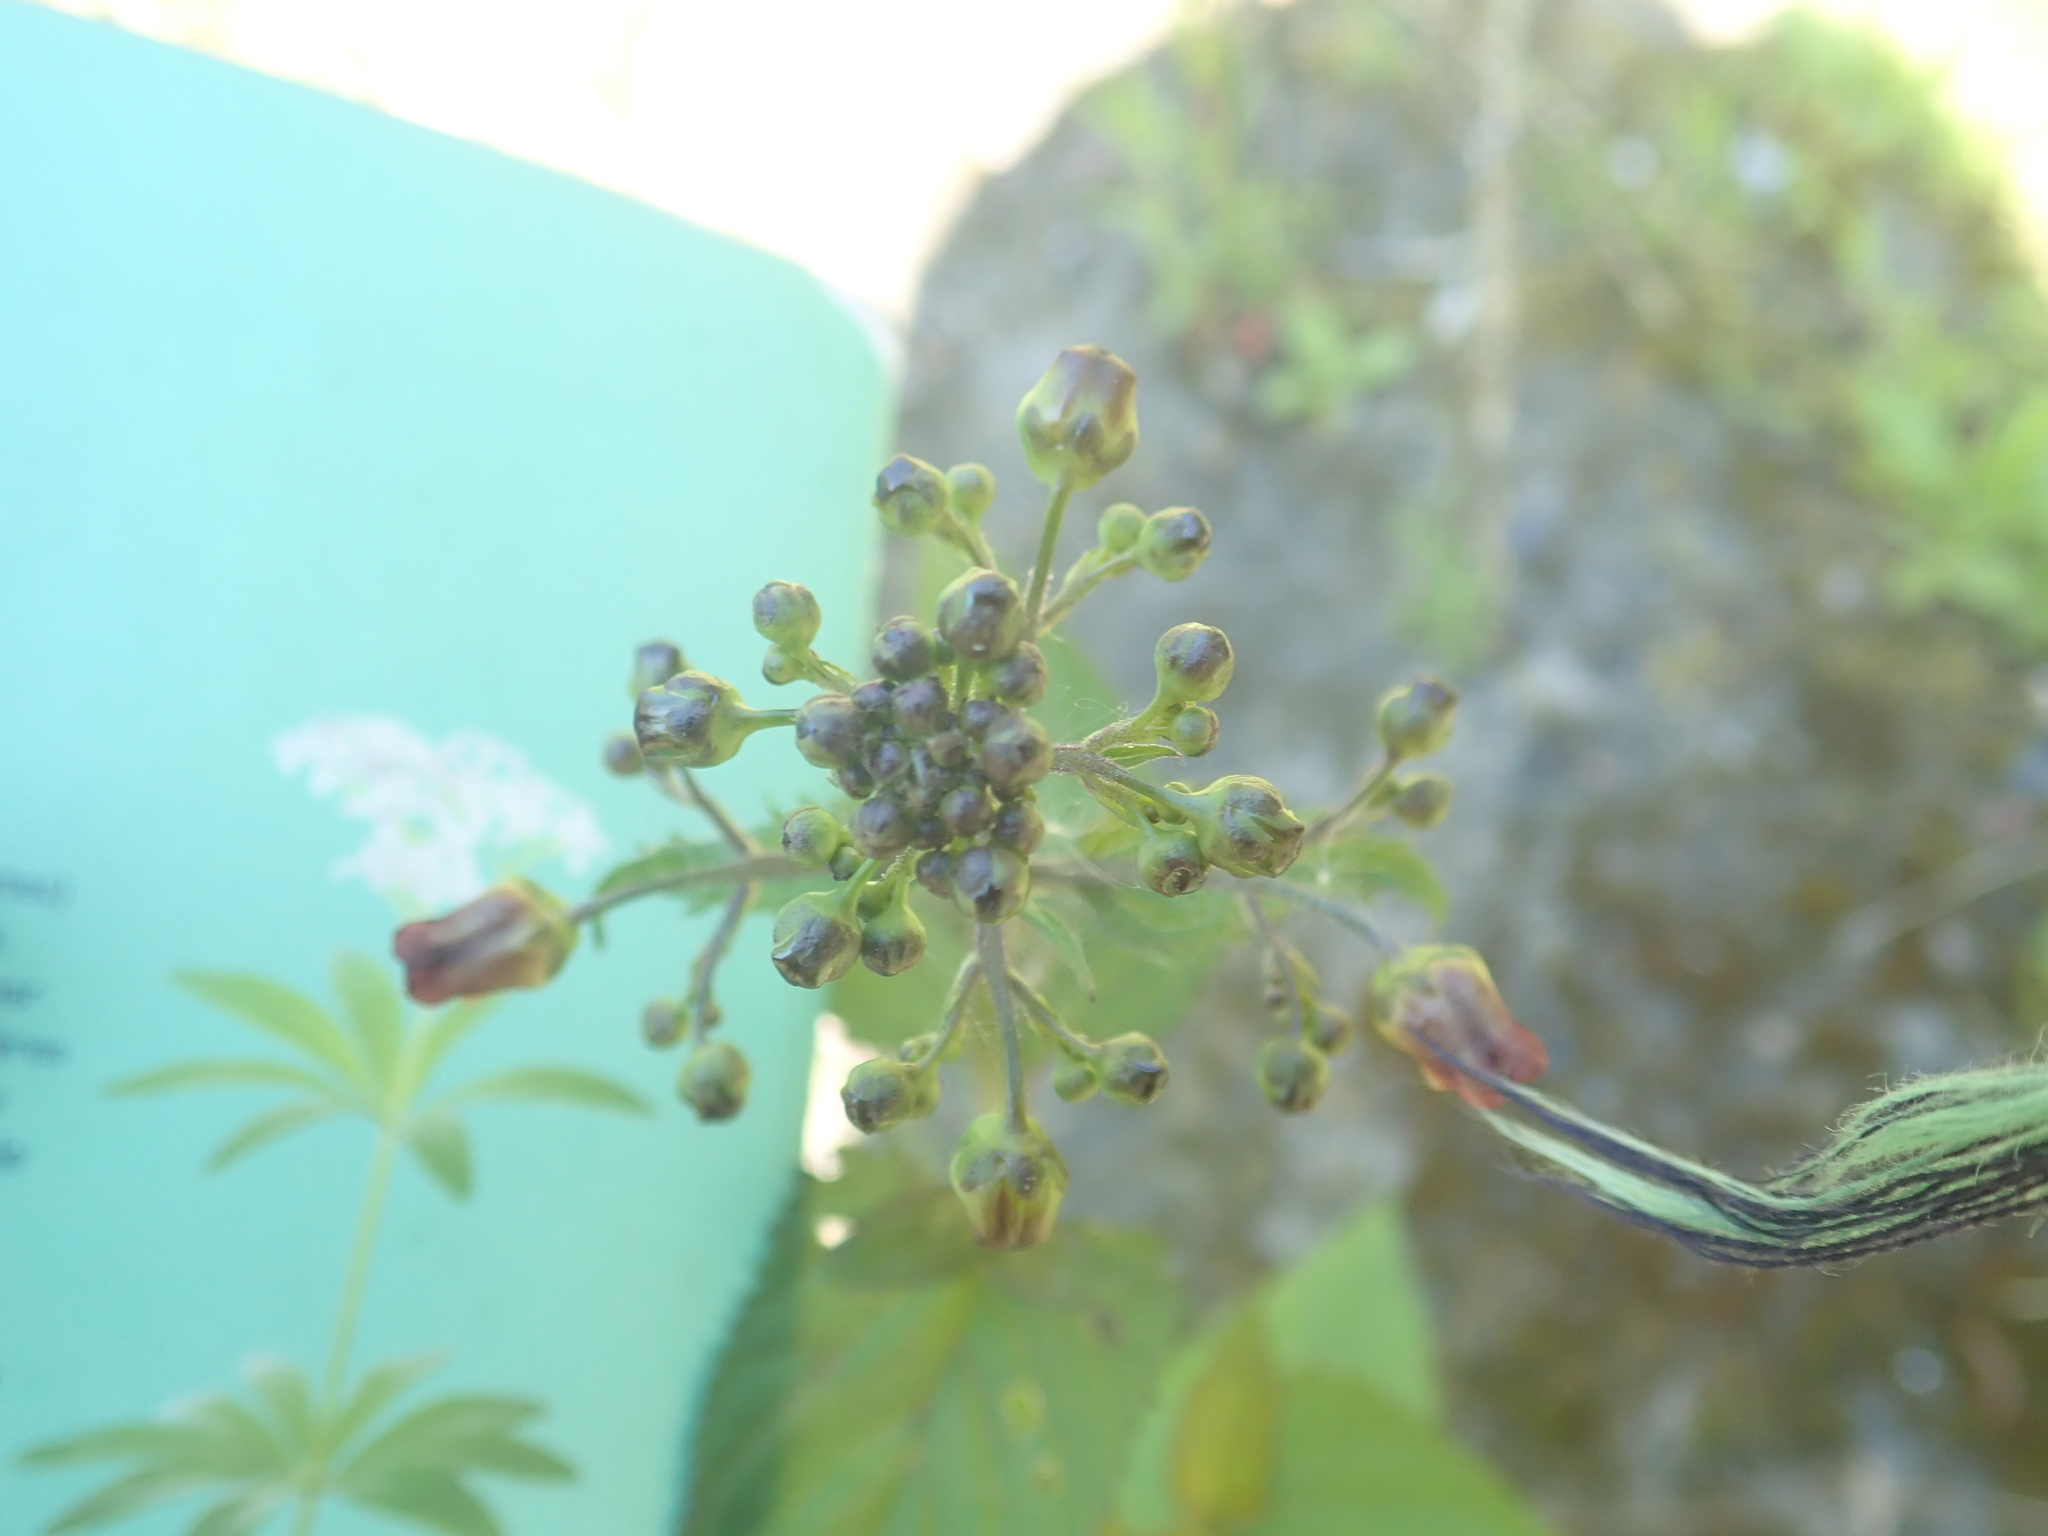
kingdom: Plantae
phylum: Tracheophyta
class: Magnoliopsida
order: Lamiales
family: Scrophulariaceae
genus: Scrophularia
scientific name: Scrophularia nodosa
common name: Common figwort
